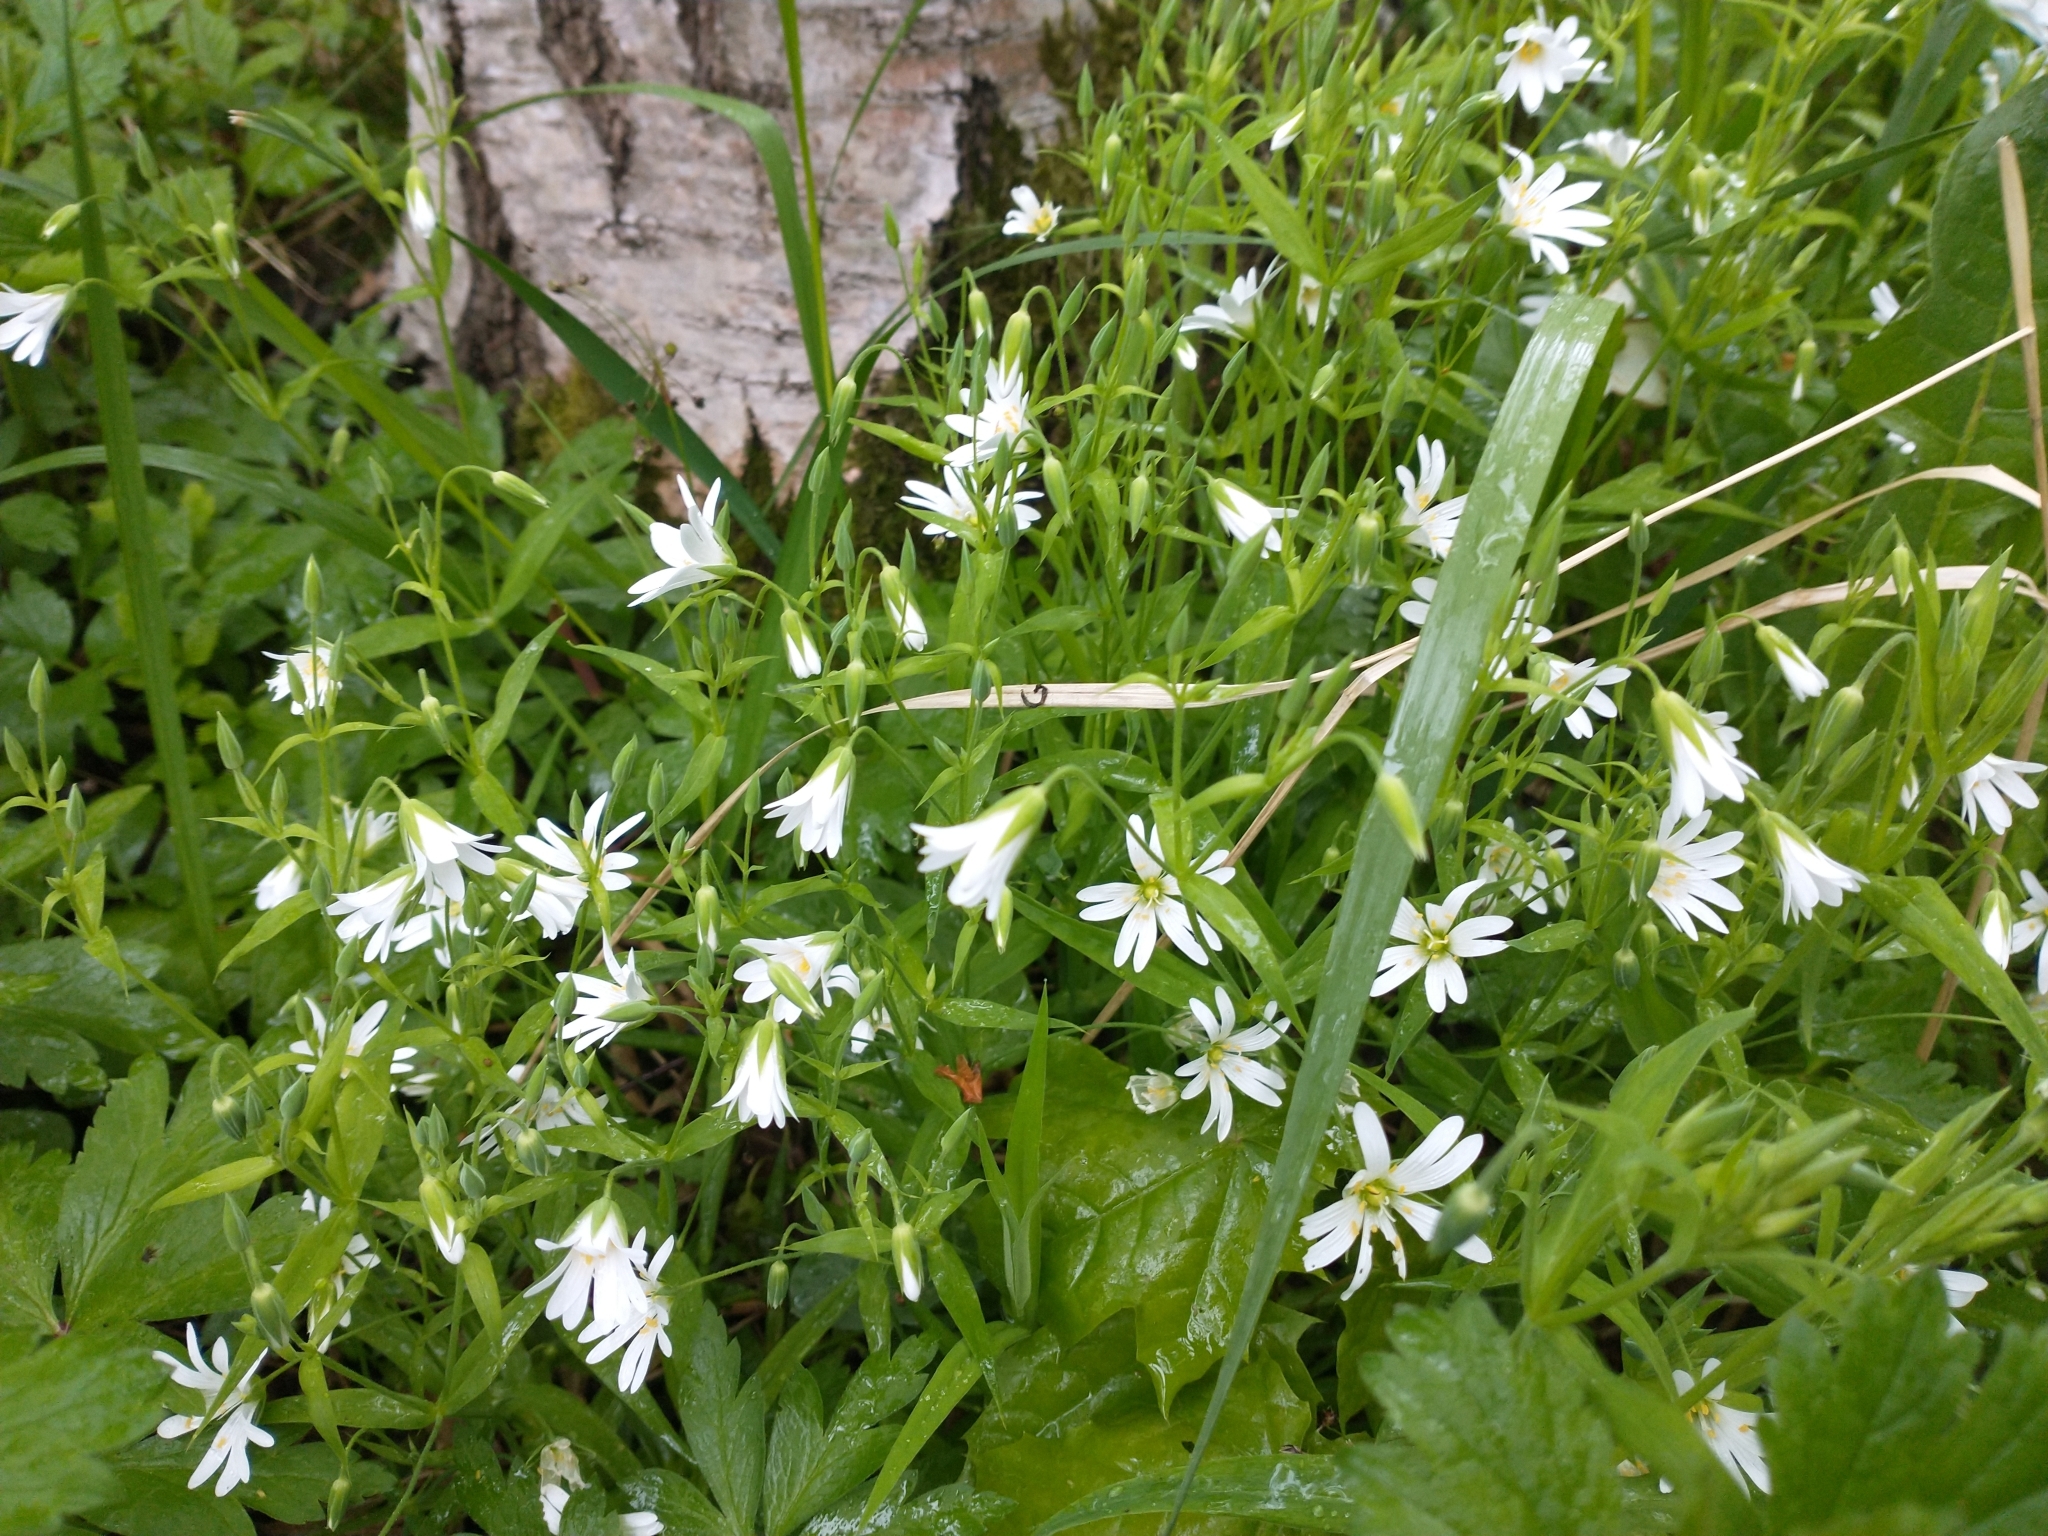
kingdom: Plantae
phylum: Tracheophyta
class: Magnoliopsida
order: Caryophyllales
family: Caryophyllaceae
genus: Rabelera
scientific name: Rabelera holostea
